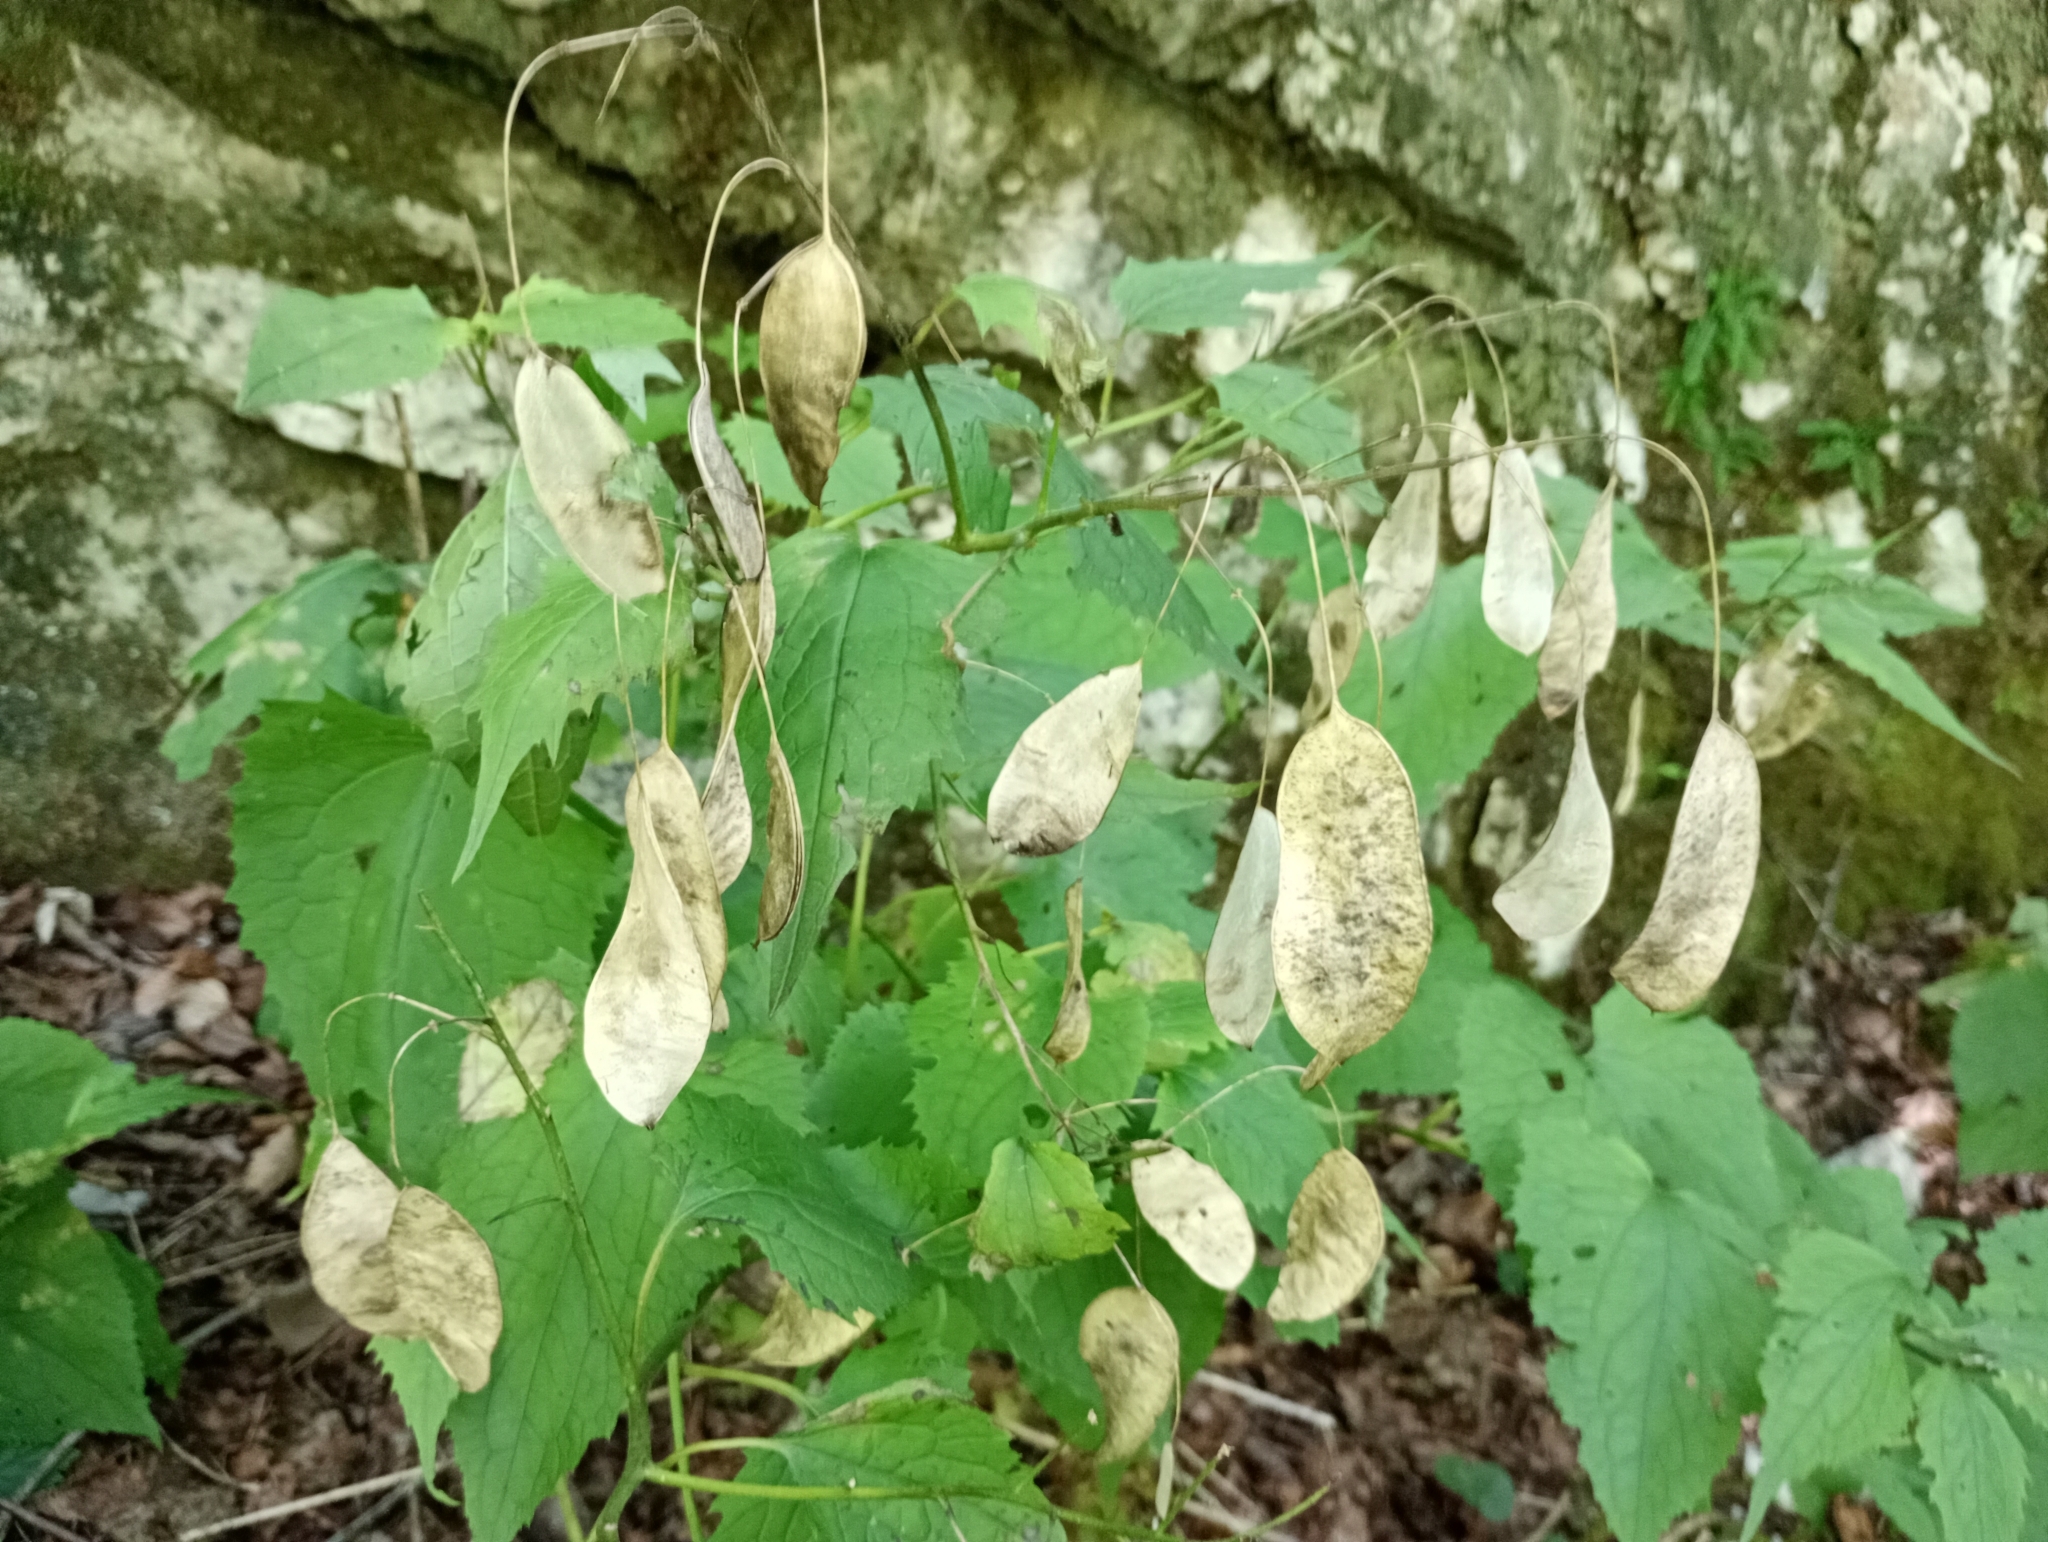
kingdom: Plantae
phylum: Tracheophyta
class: Magnoliopsida
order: Brassicales
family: Brassicaceae
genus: Lunaria
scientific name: Lunaria rediviva
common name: Perennial honesty
